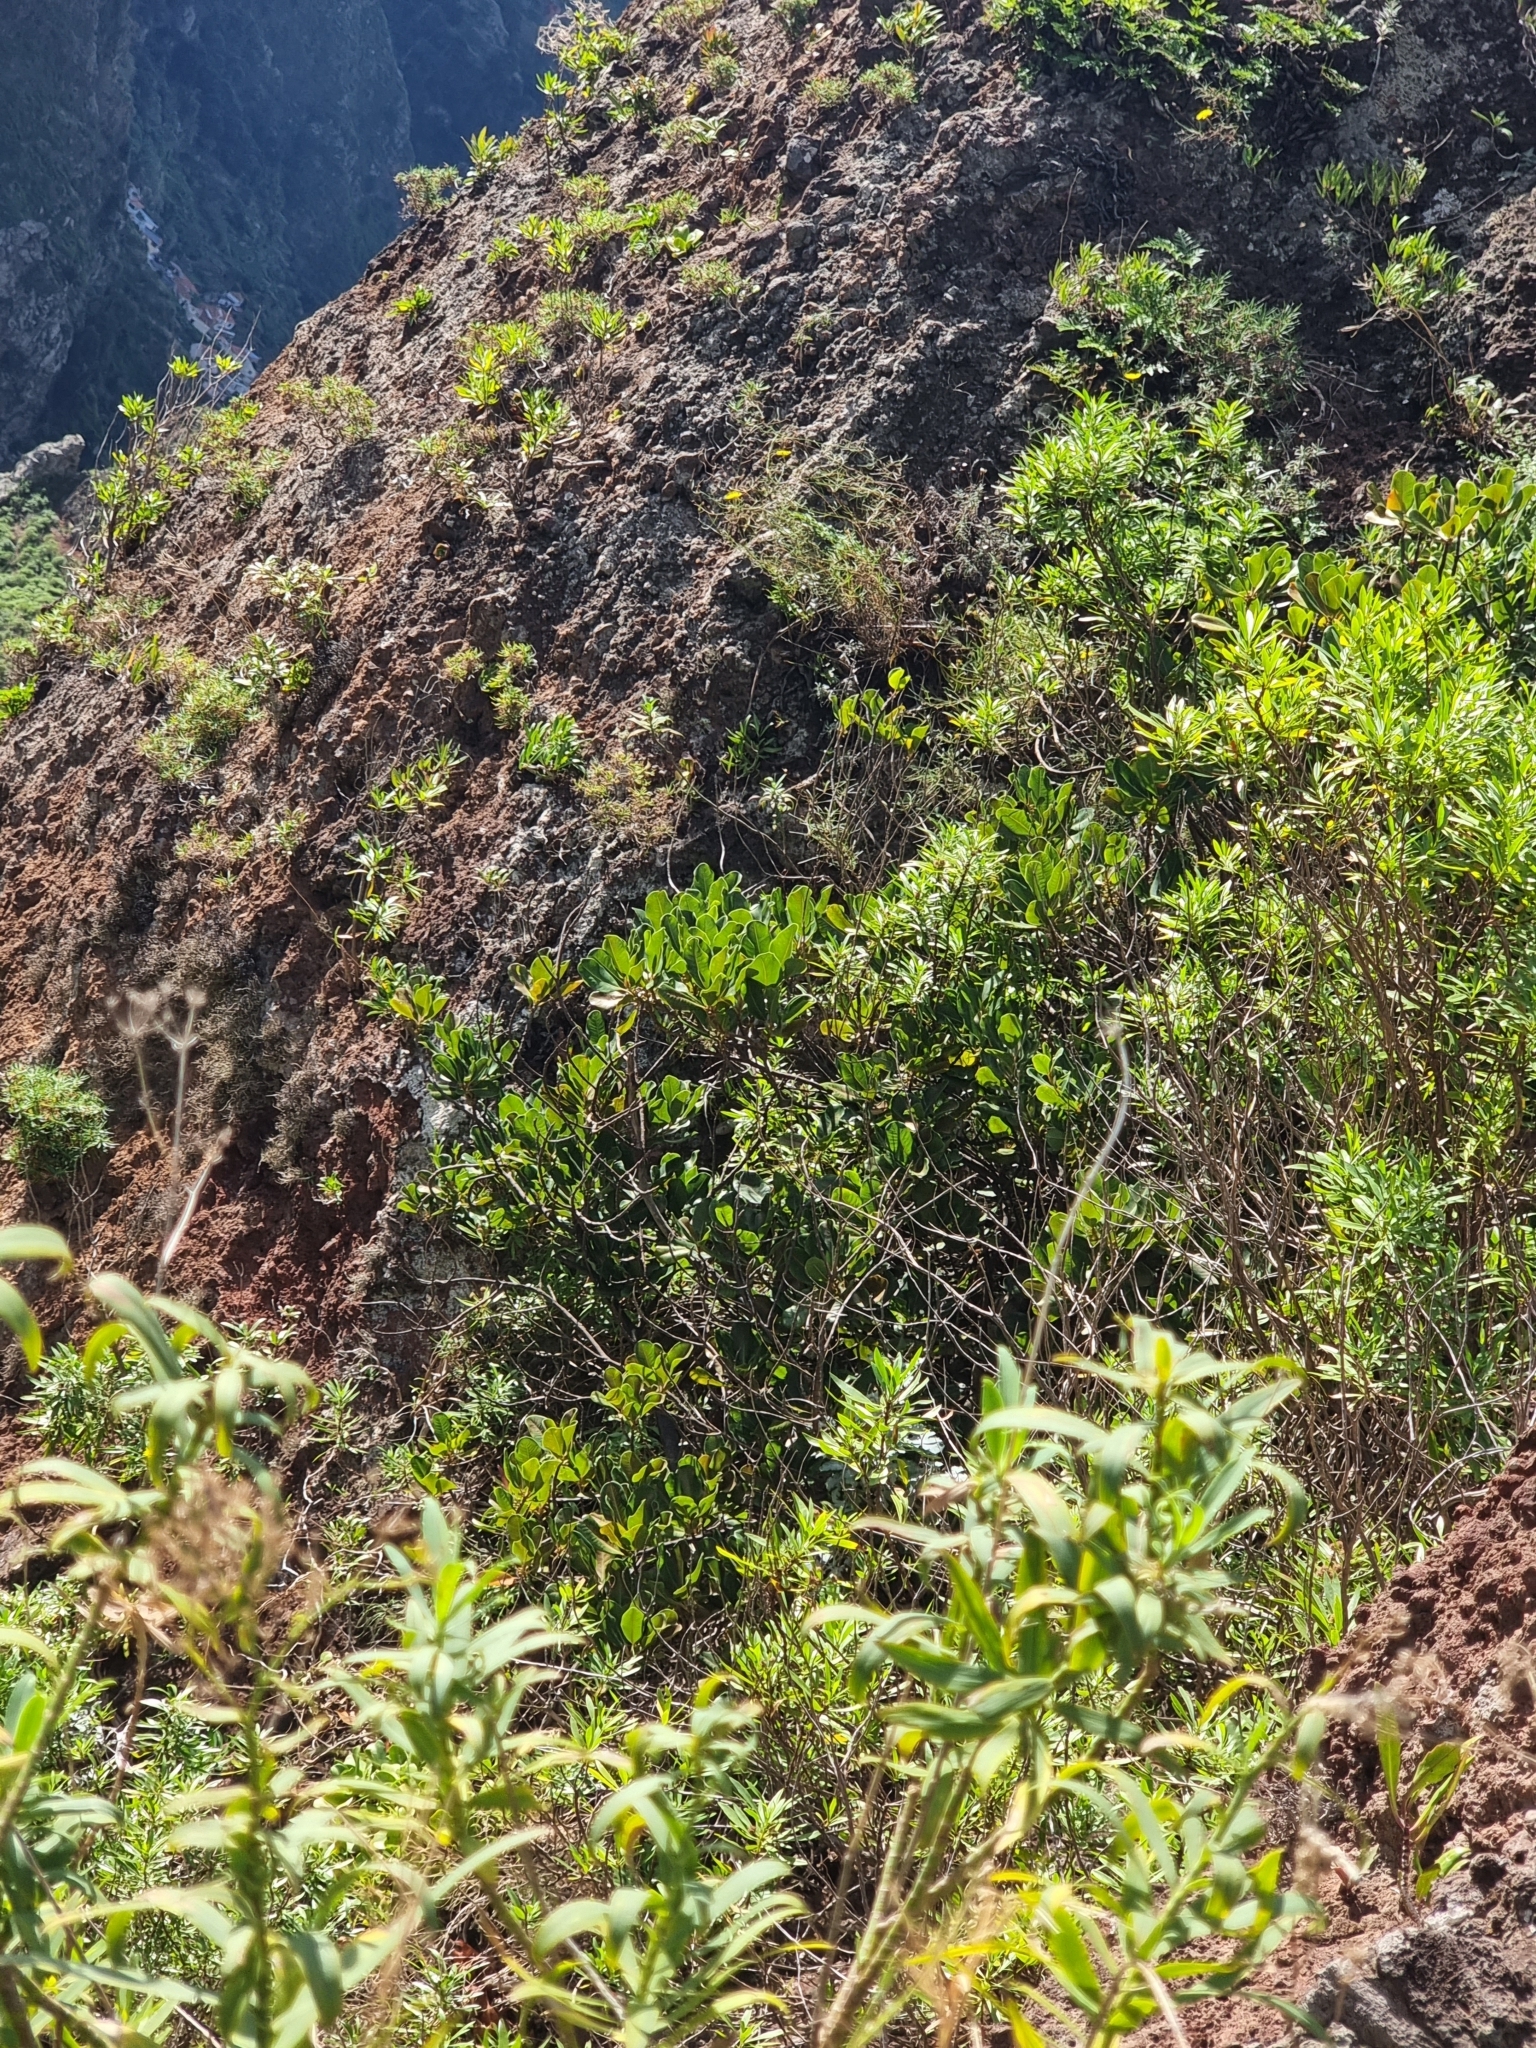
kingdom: Plantae
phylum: Tracheophyta
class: Magnoliopsida
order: Ericales
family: Sapotaceae
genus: Sideroxylon
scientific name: Sideroxylon mirmulans
